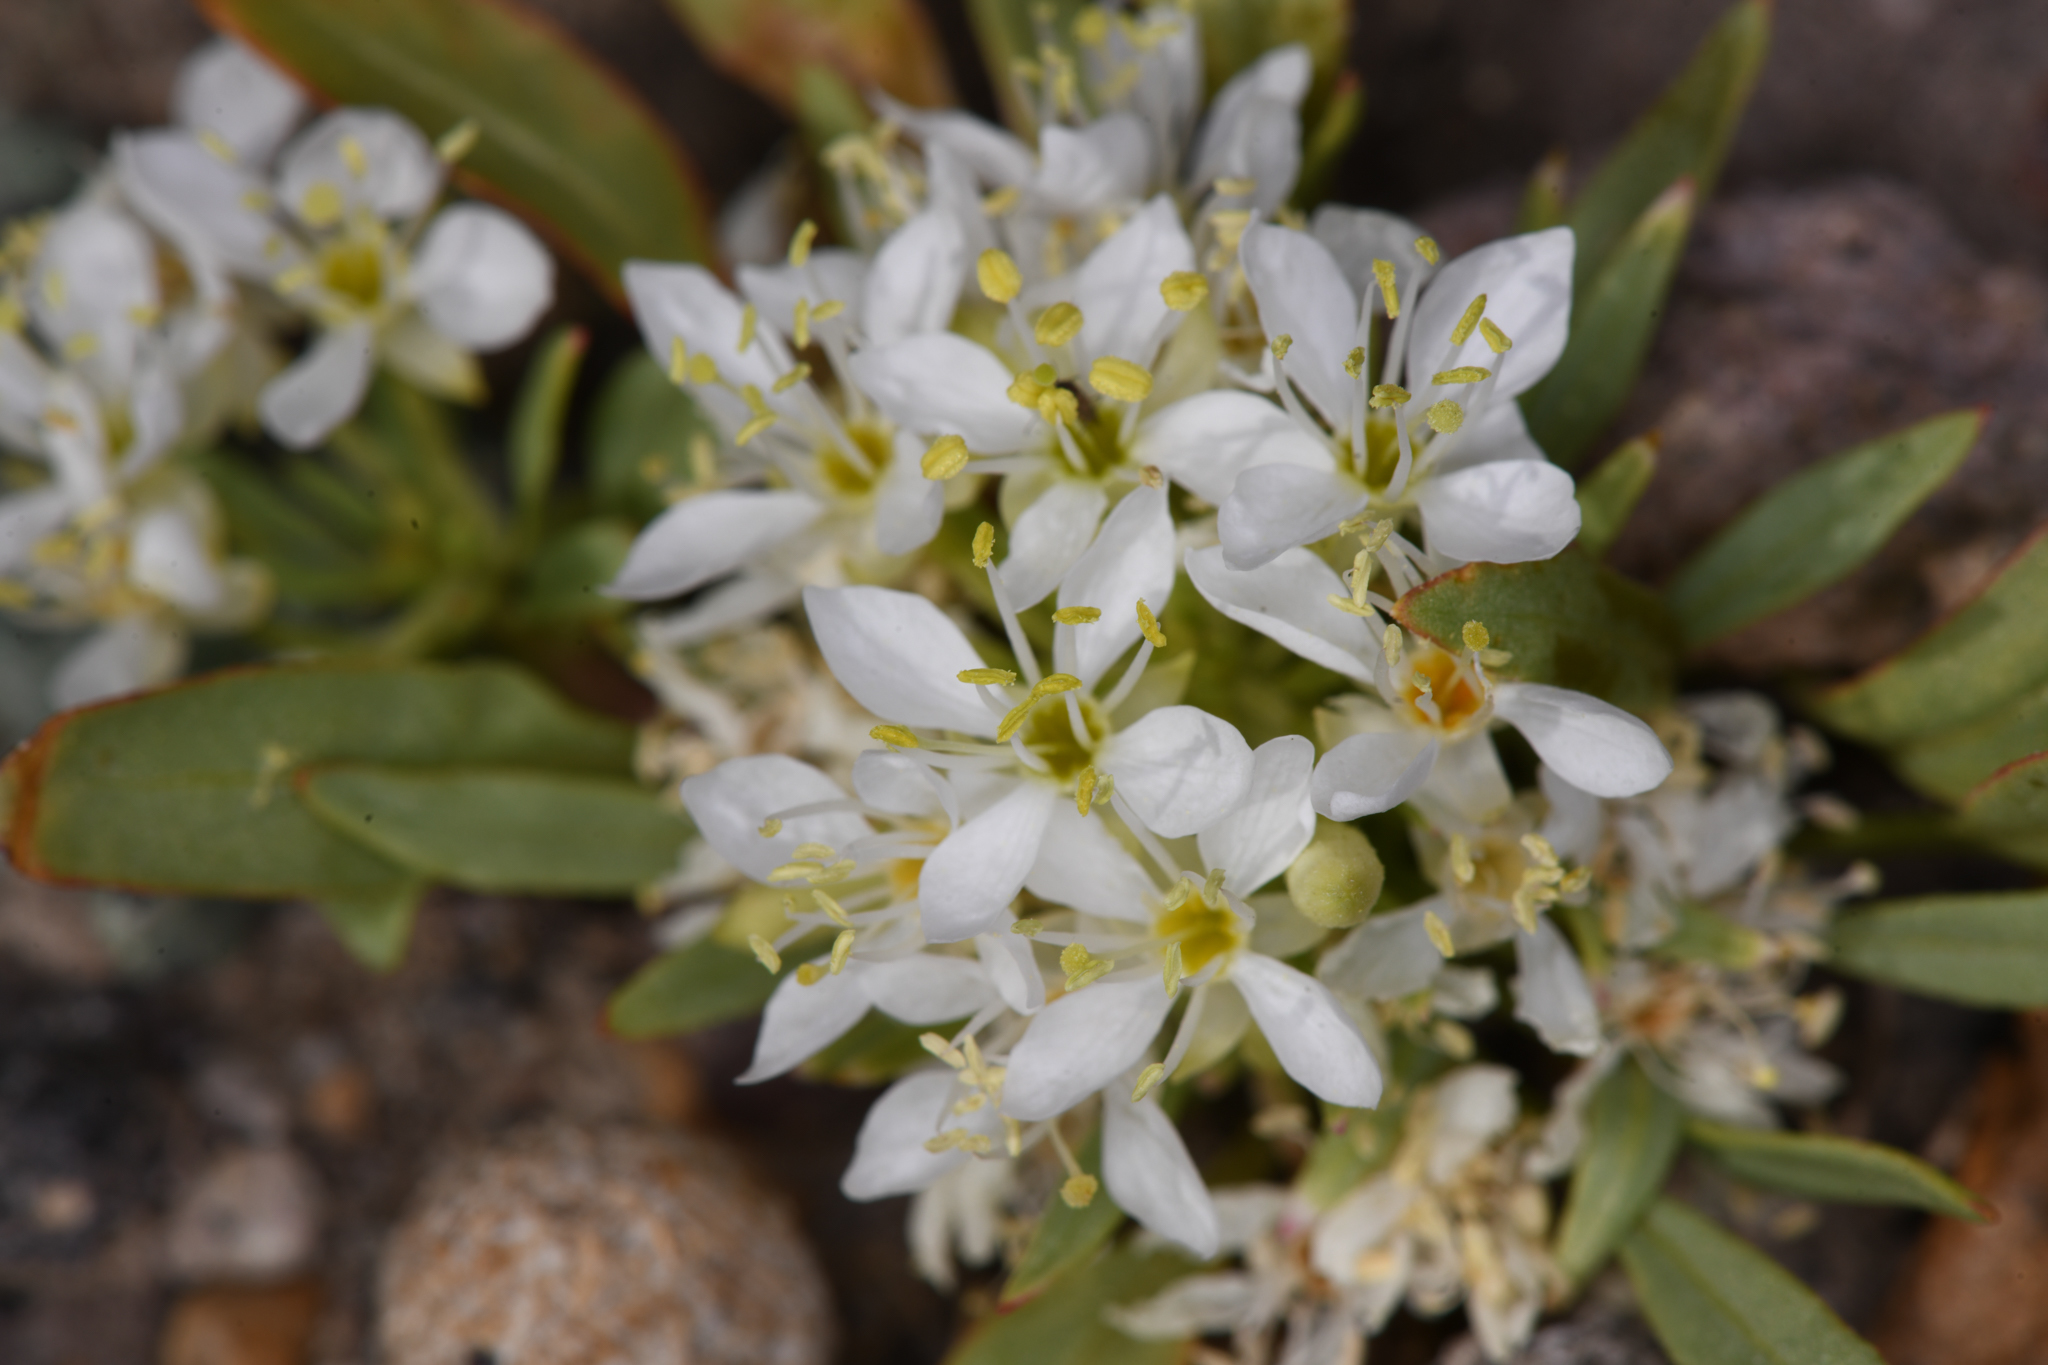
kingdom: Plantae
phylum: Tracheophyta
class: Magnoliopsida
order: Myrtales
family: Onagraceae
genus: Eremothera
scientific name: Eremothera nevadensis
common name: Nevada suncup
